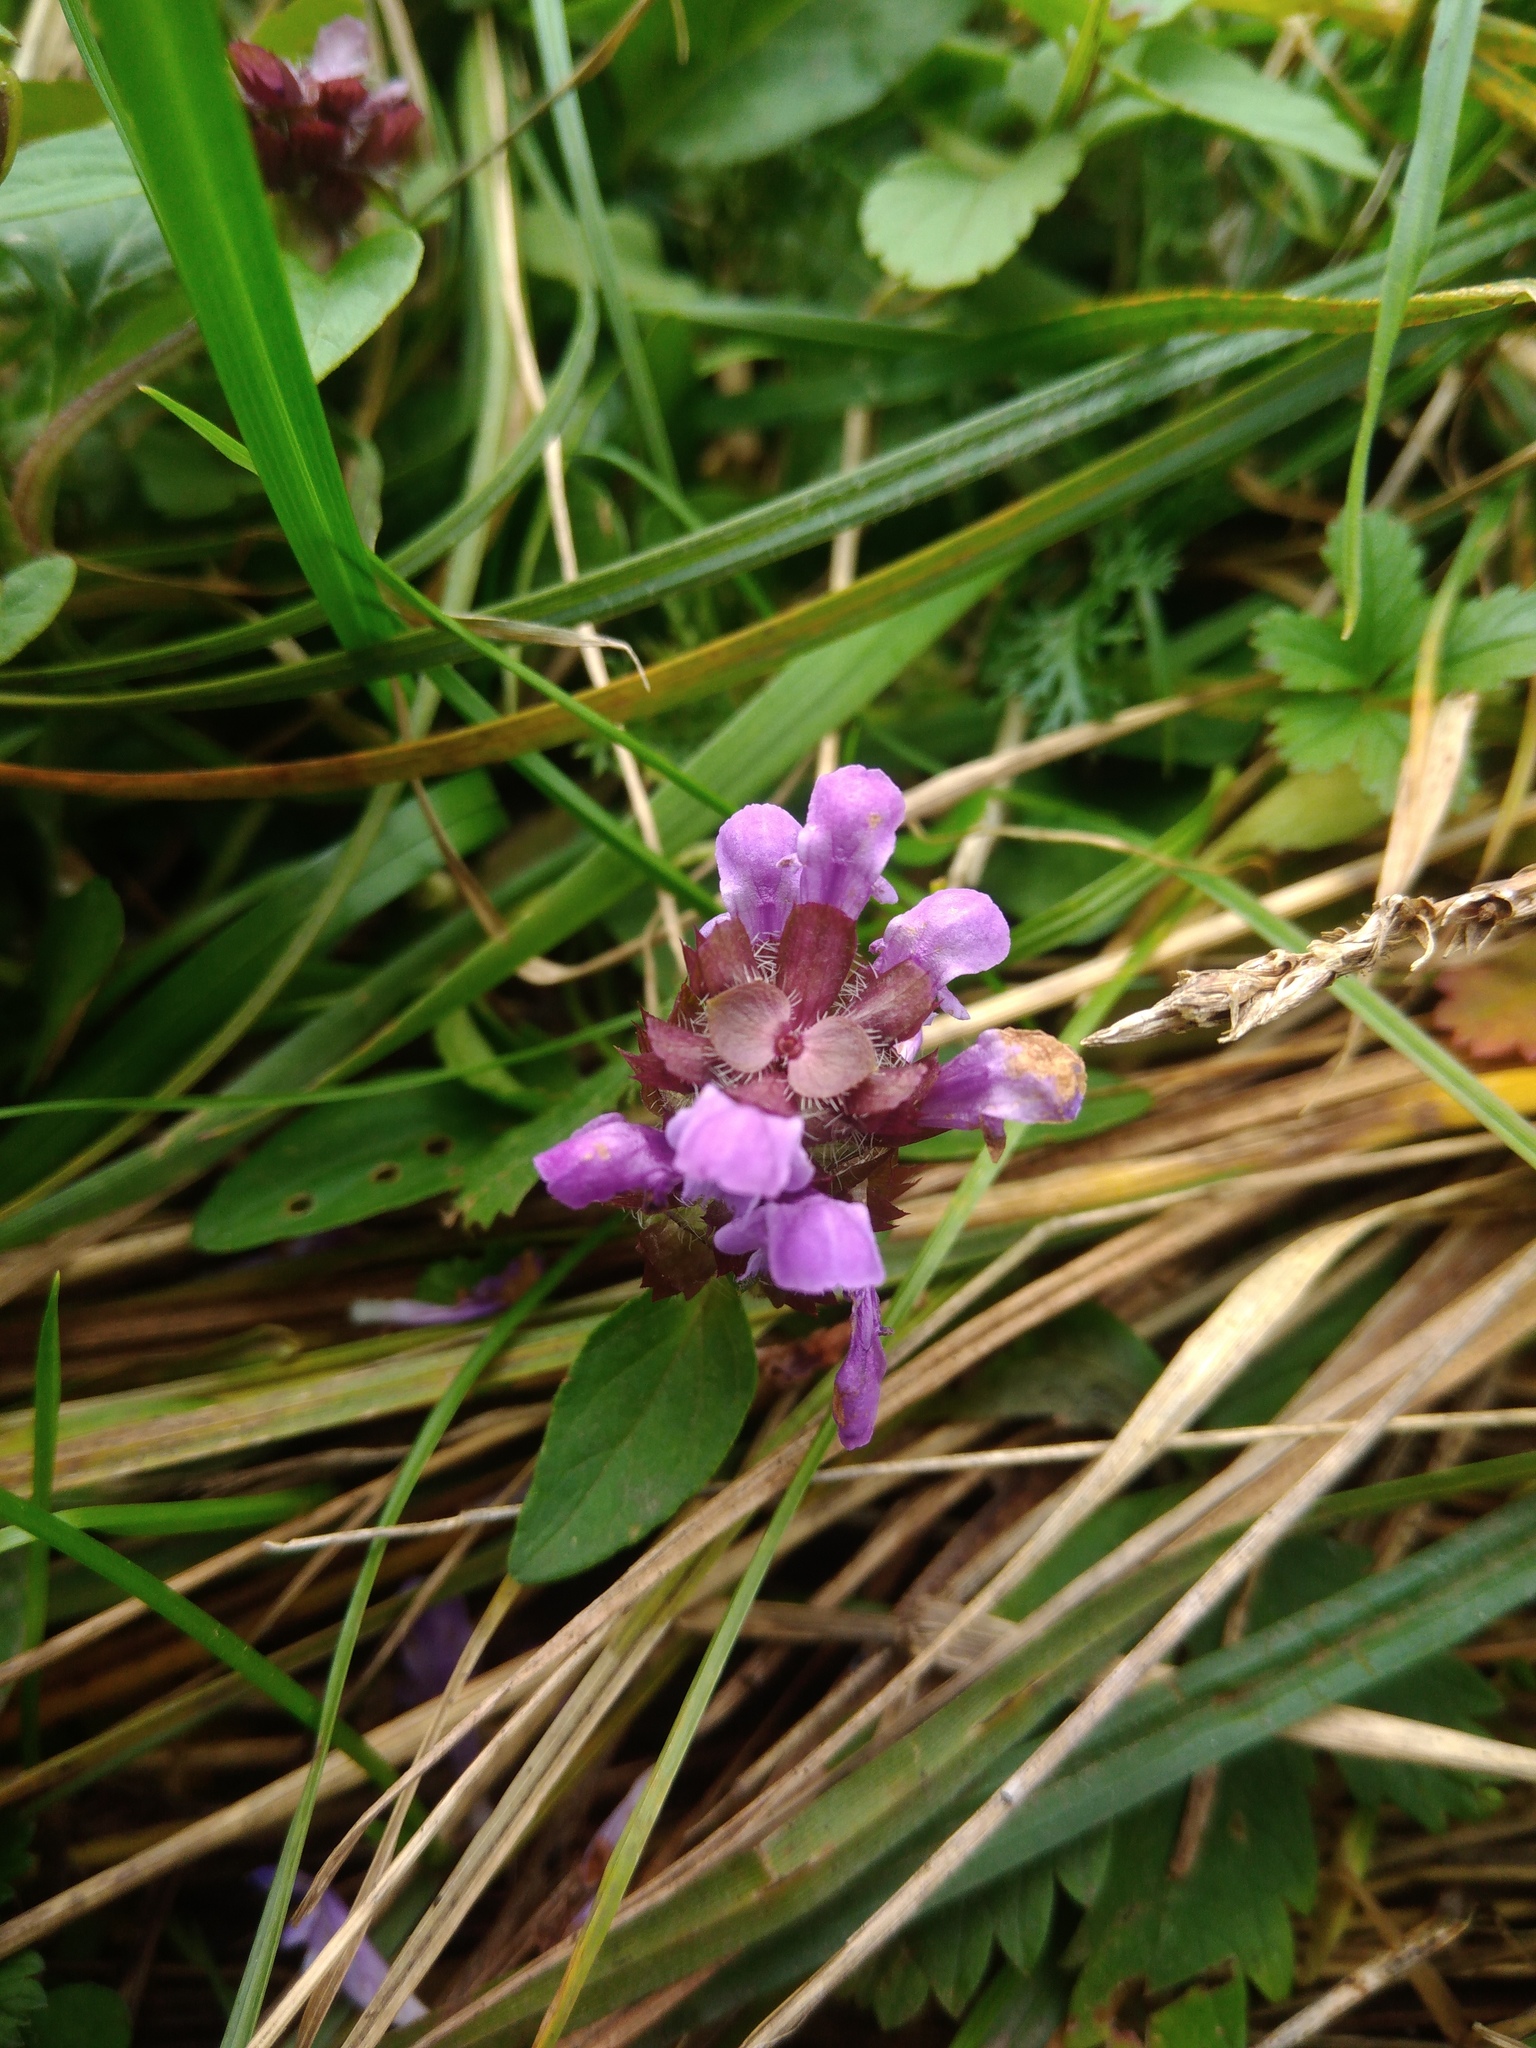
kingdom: Plantae
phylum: Tracheophyta
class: Magnoliopsida
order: Lamiales
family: Lamiaceae
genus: Prunella
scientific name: Prunella vulgaris
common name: Heal-all
